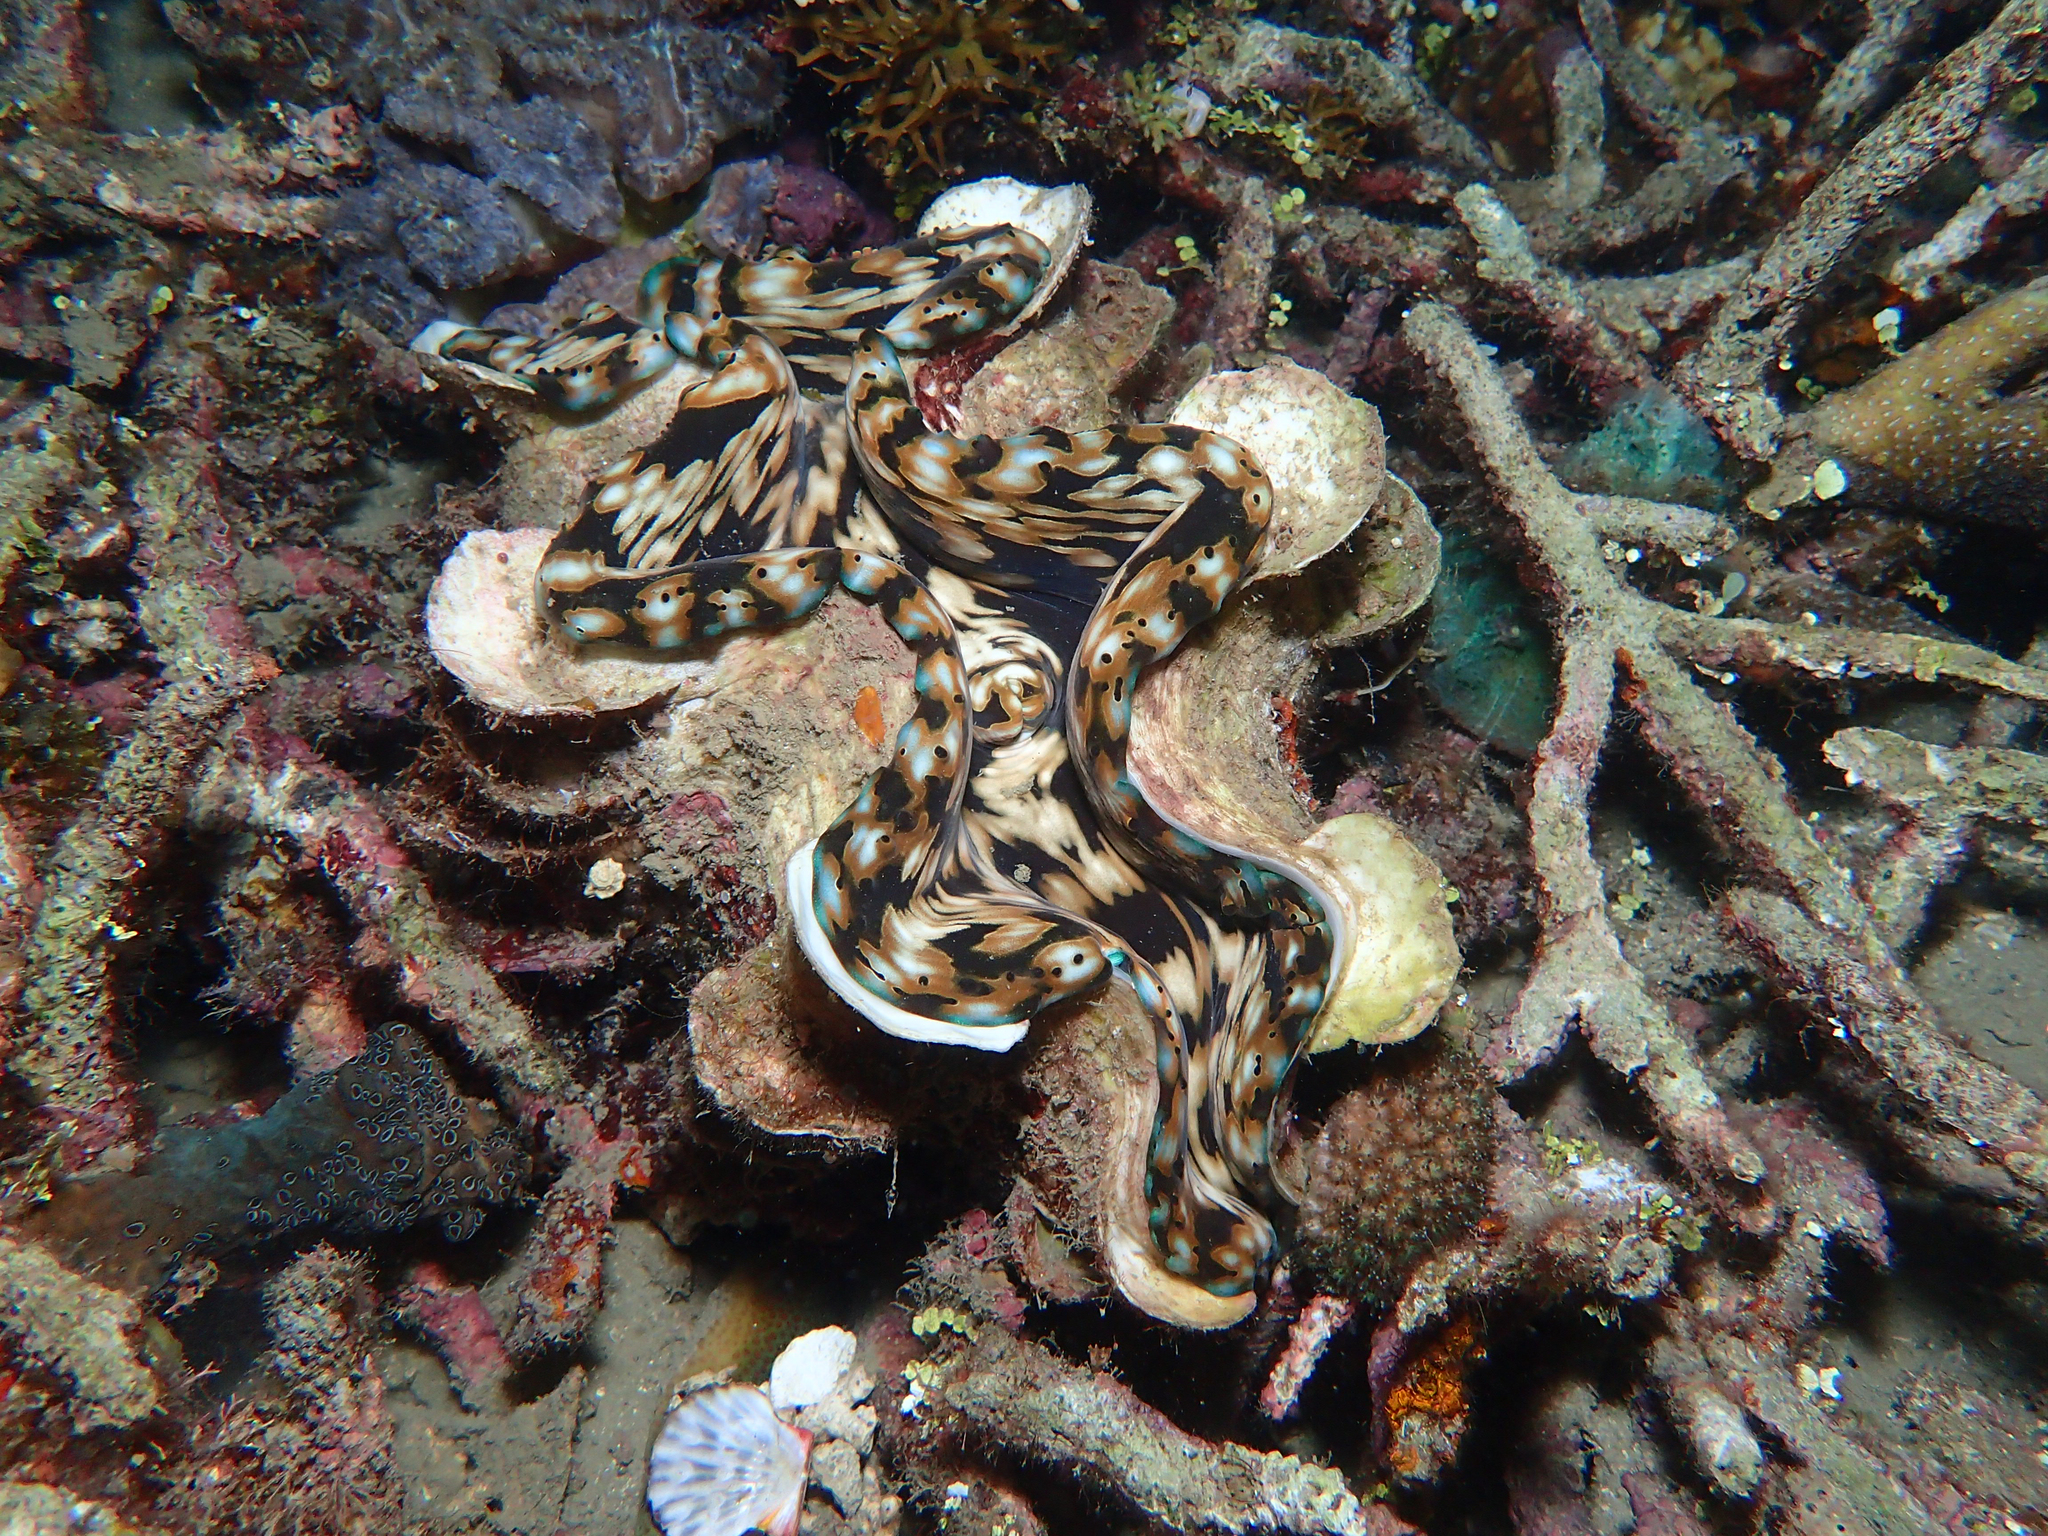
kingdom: Animalia
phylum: Mollusca
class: Bivalvia
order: Cardiida
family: Cardiidae
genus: Tridacna
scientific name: Tridacna squamosa
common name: Fluted clam
